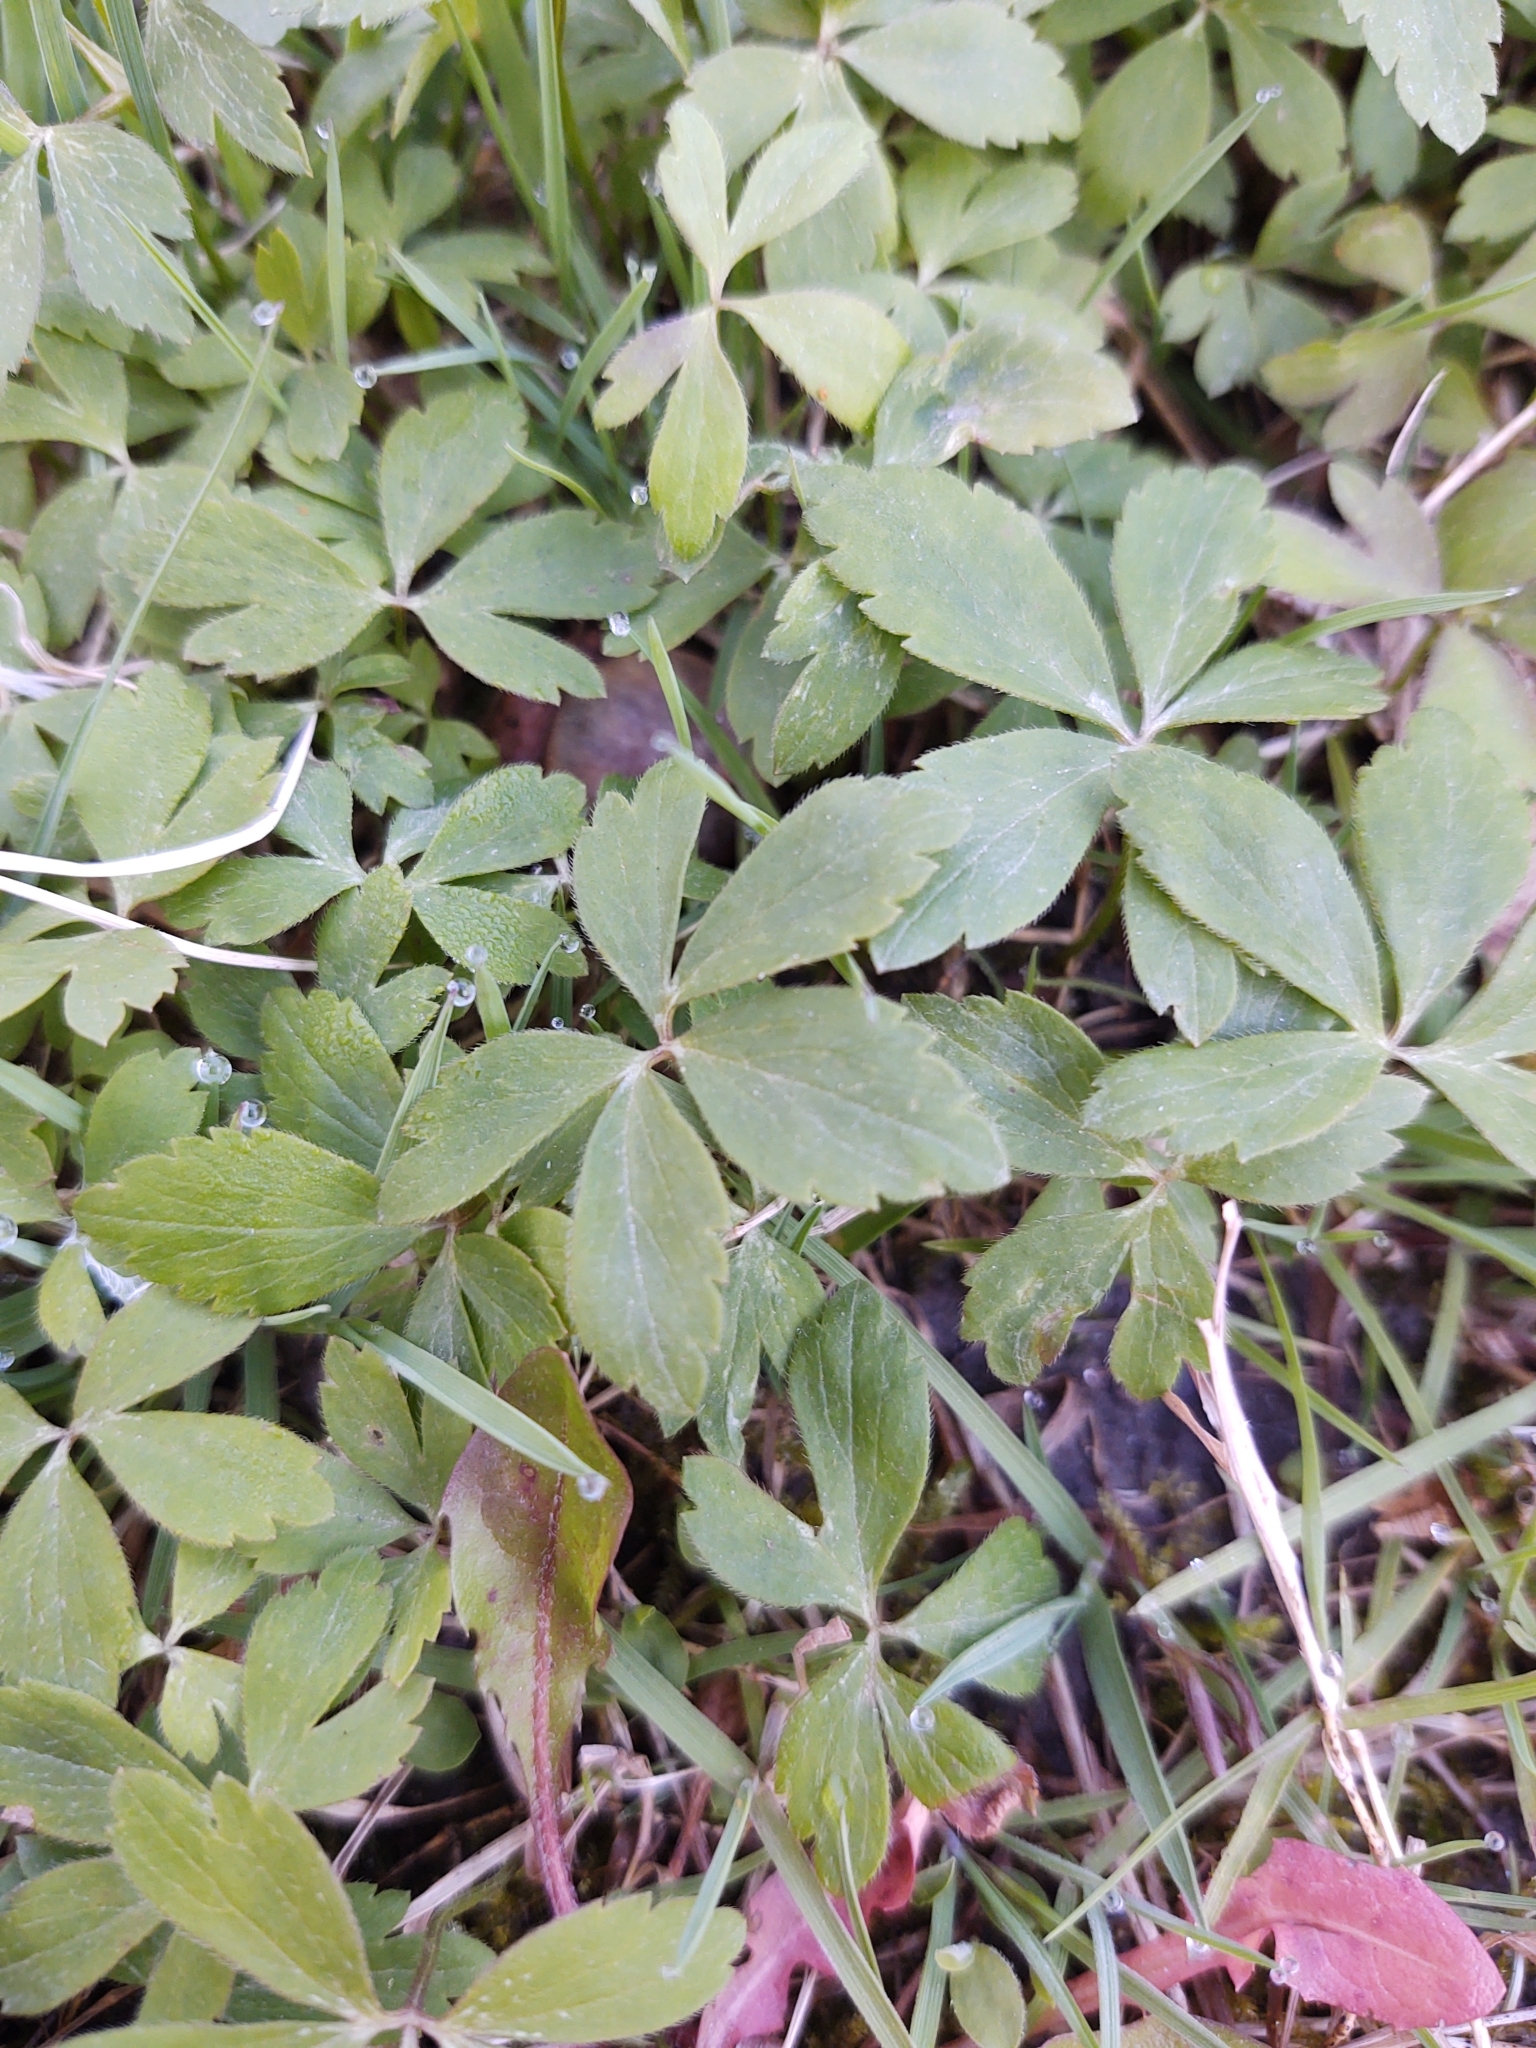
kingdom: Plantae
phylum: Tracheophyta
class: Magnoliopsida
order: Ranunculales
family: Ranunculaceae
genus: Anemone
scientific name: Anemone quinquefolia
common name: Wood anemone
